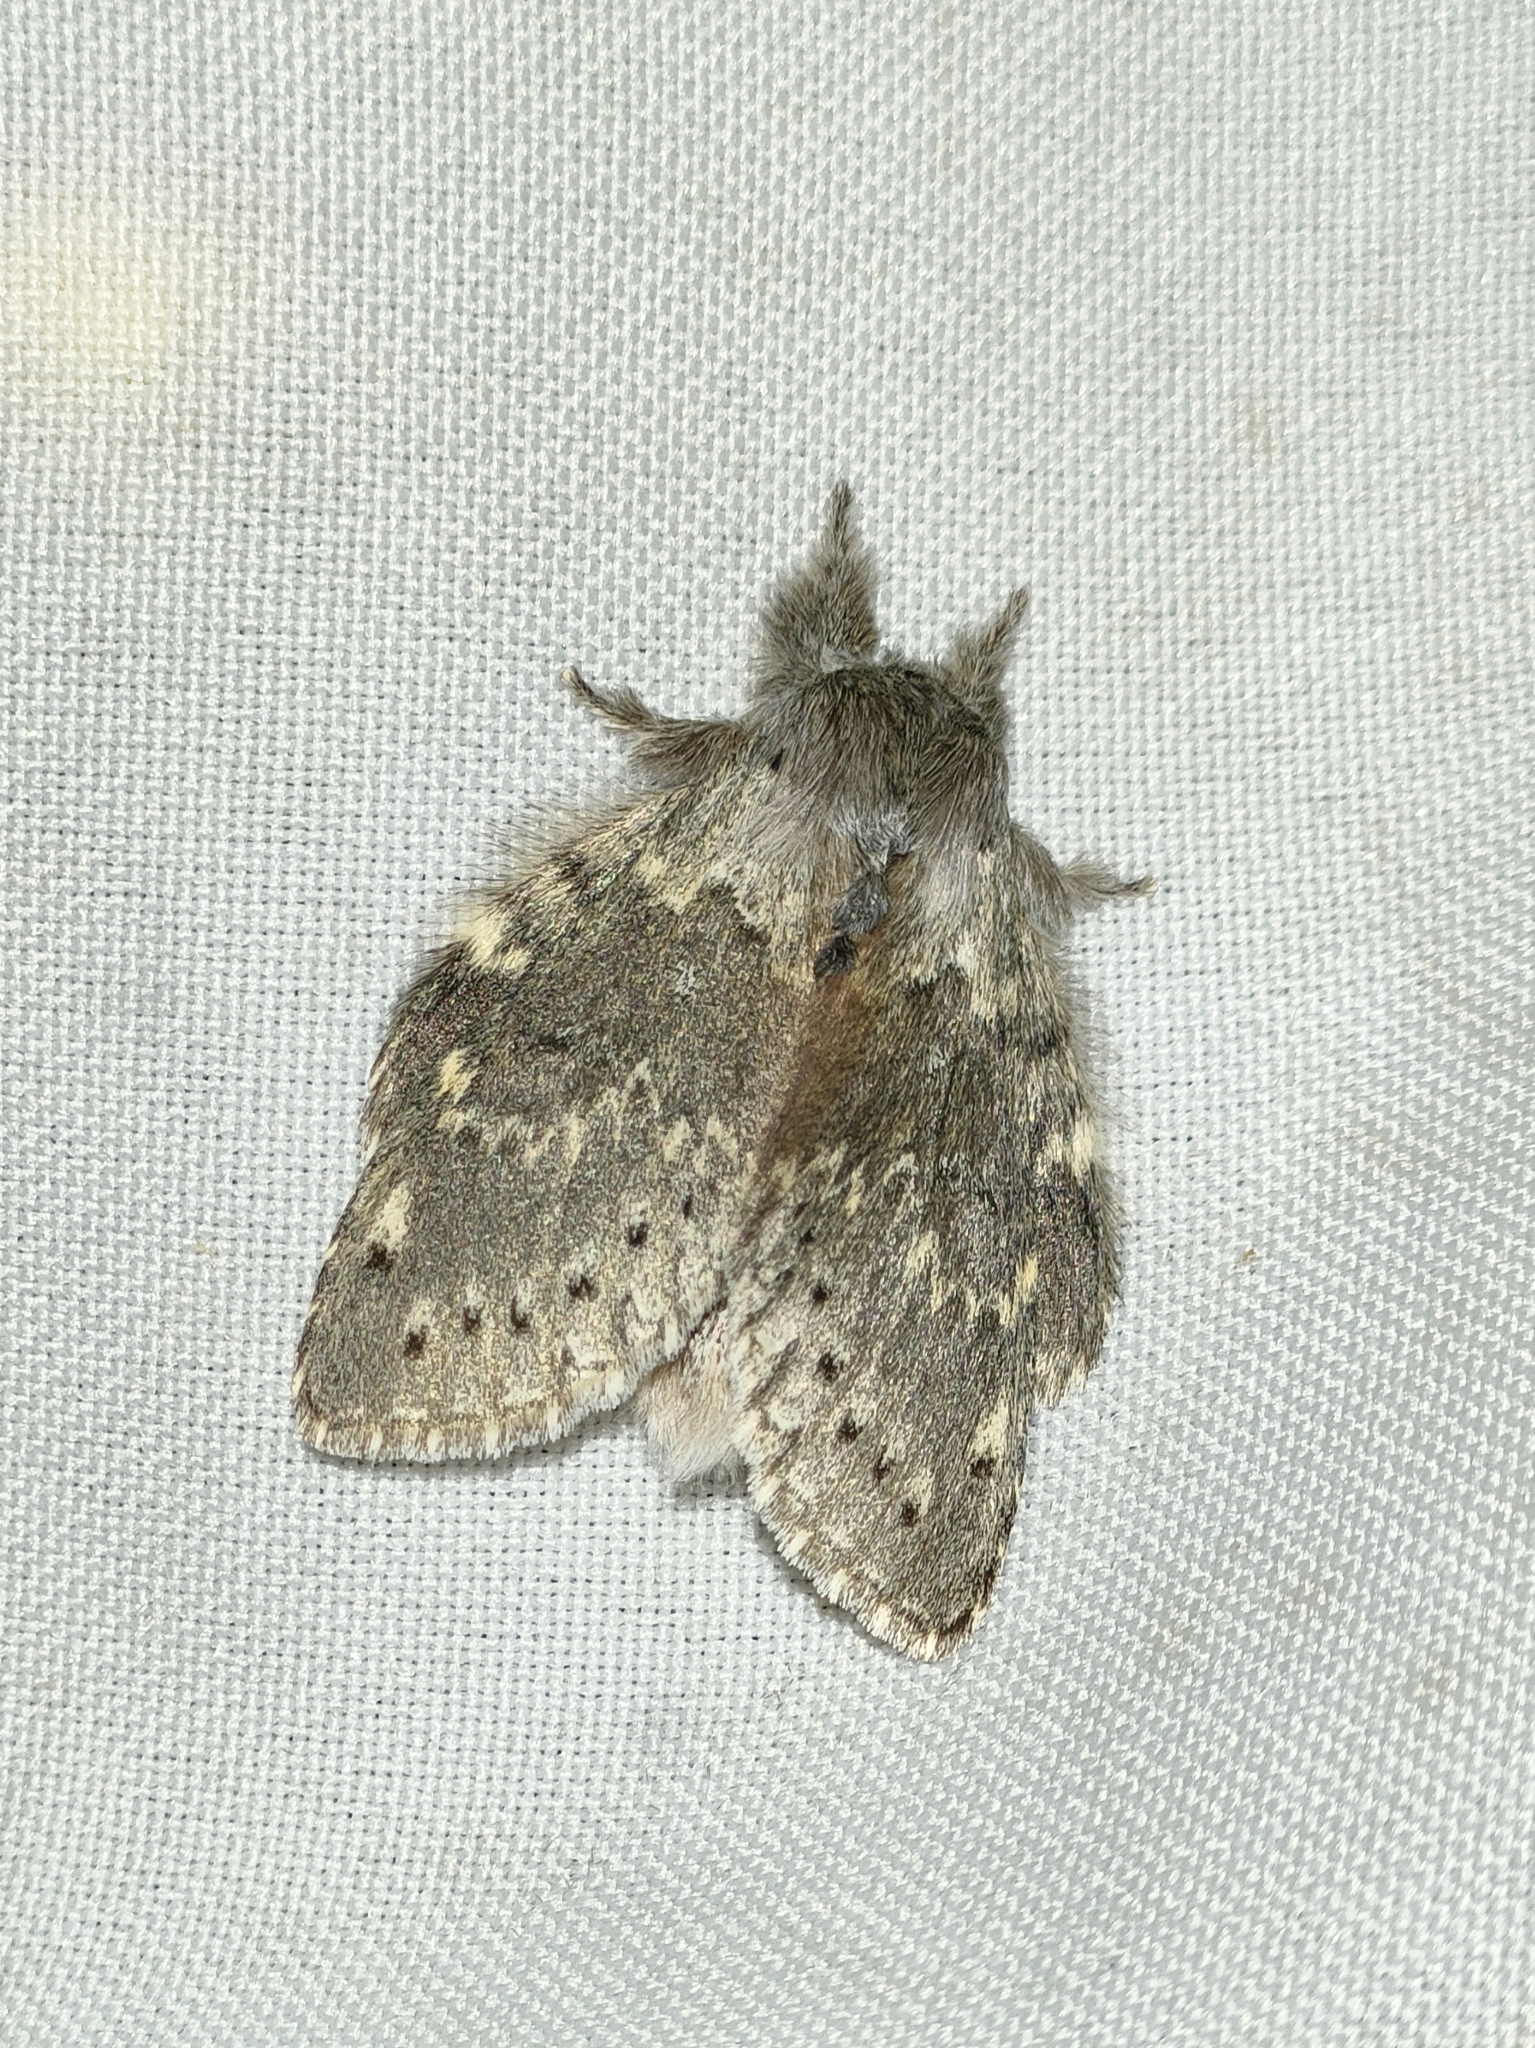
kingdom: Animalia
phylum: Arthropoda
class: Insecta
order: Lepidoptera
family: Notodontidae
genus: Stauropus
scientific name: Stauropus fagi
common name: Lobster moth
